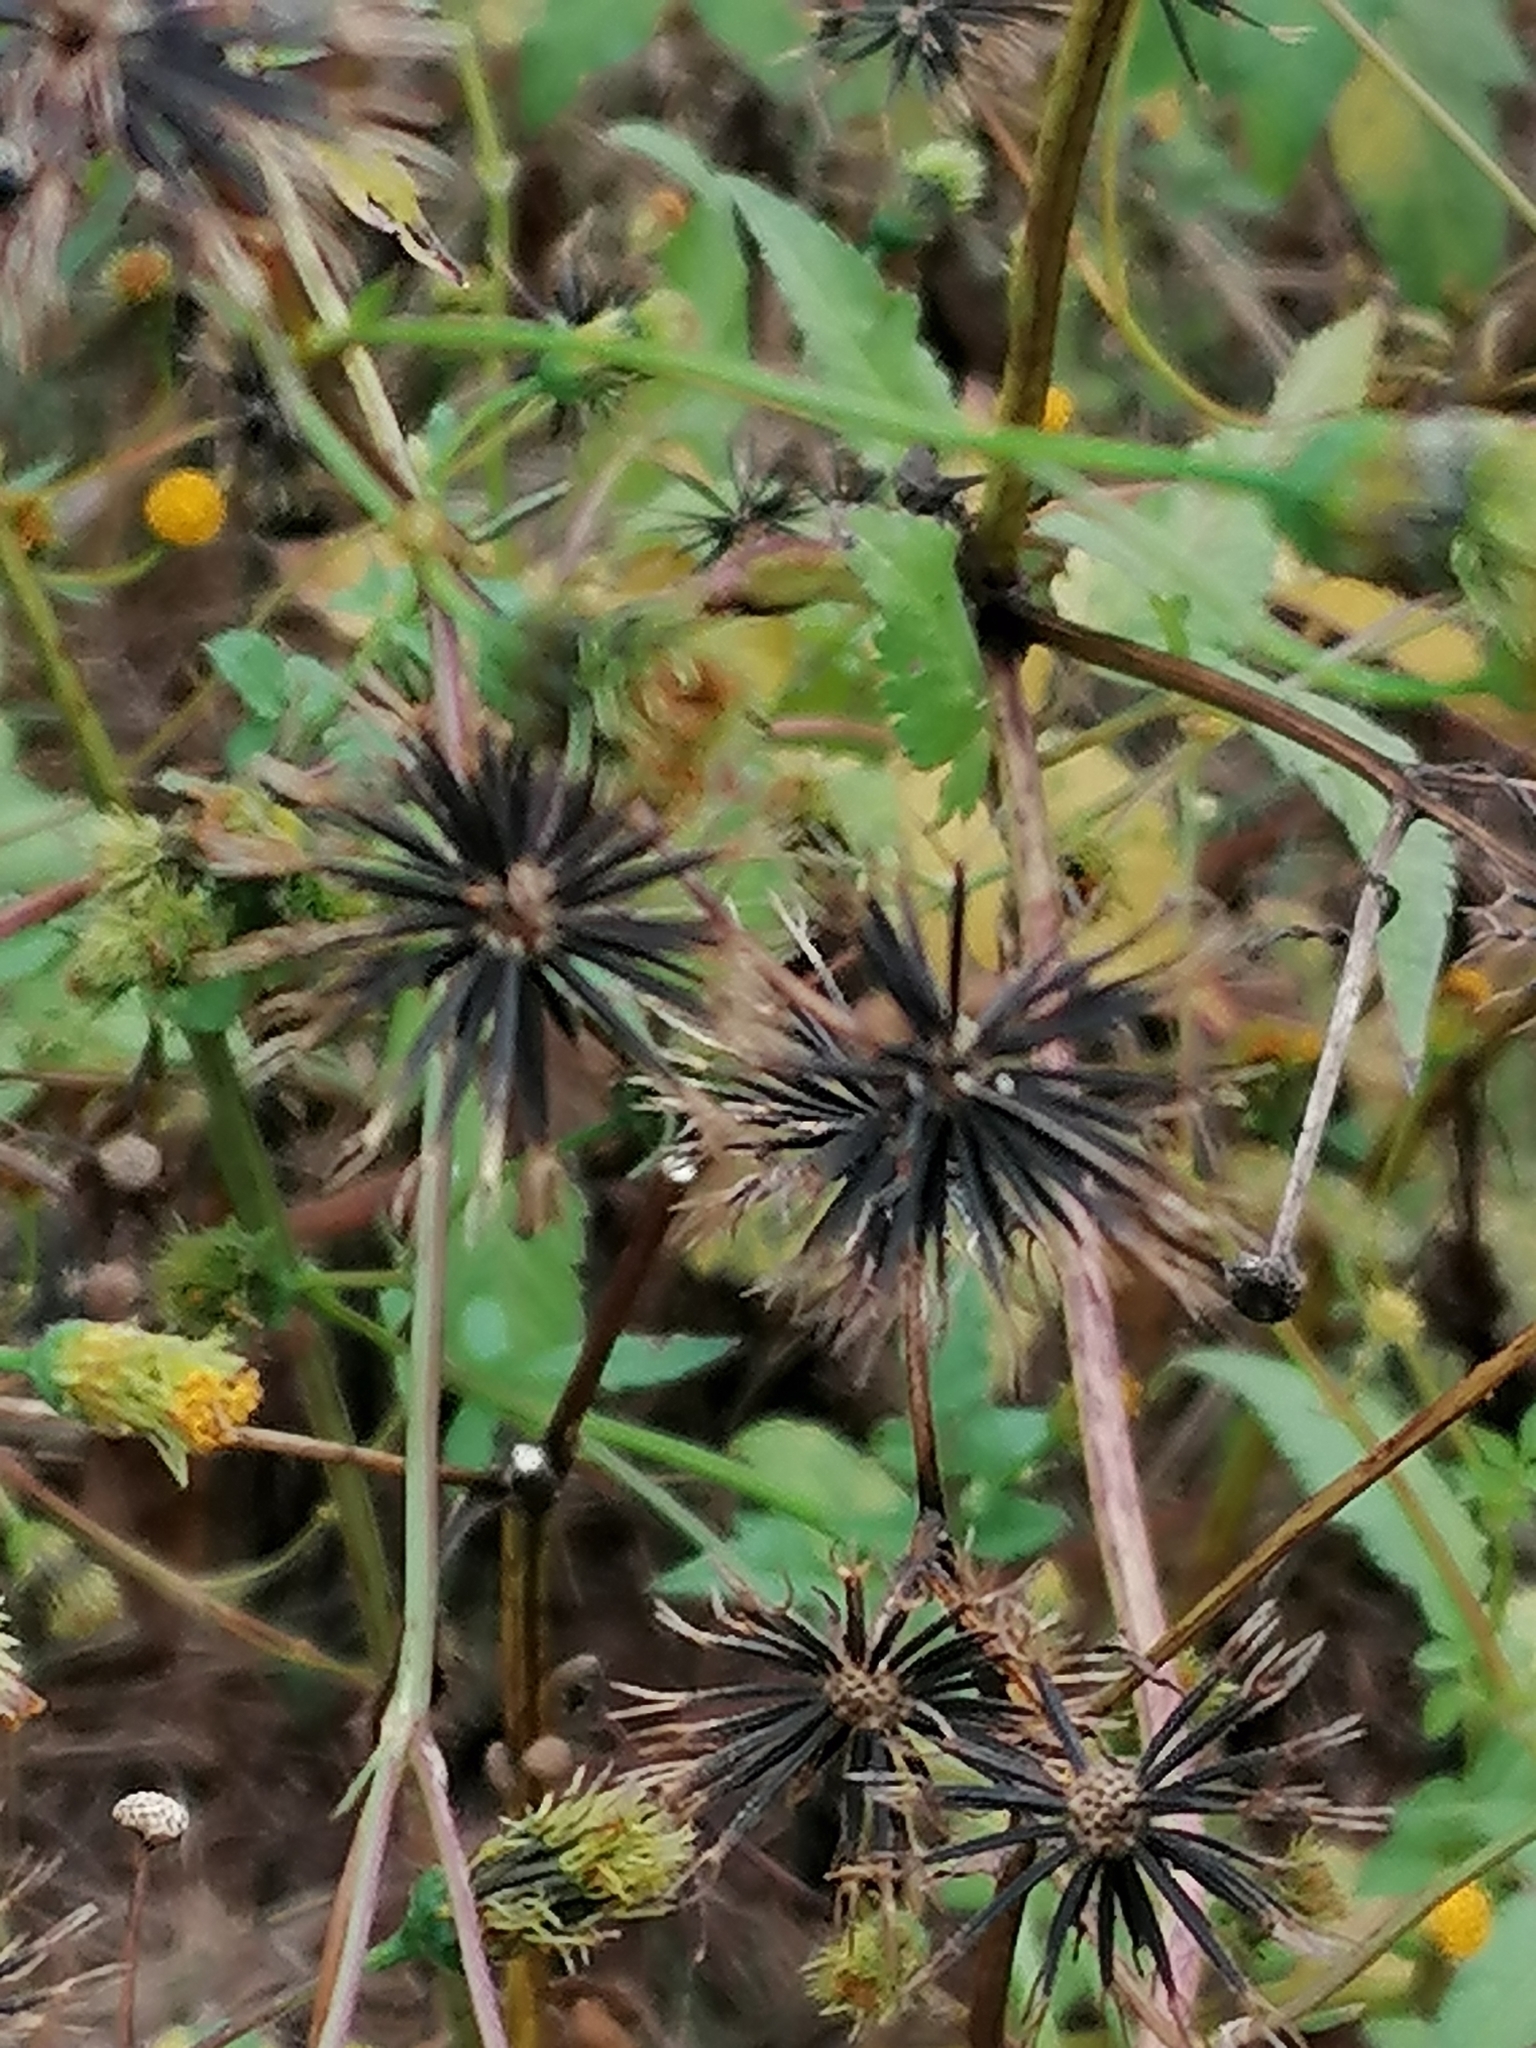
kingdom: Plantae
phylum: Tracheophyta
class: Magnoliopsida
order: Asterales
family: Asteraceae
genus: Bidens
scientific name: Bidens pilosa
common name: Black-jack
